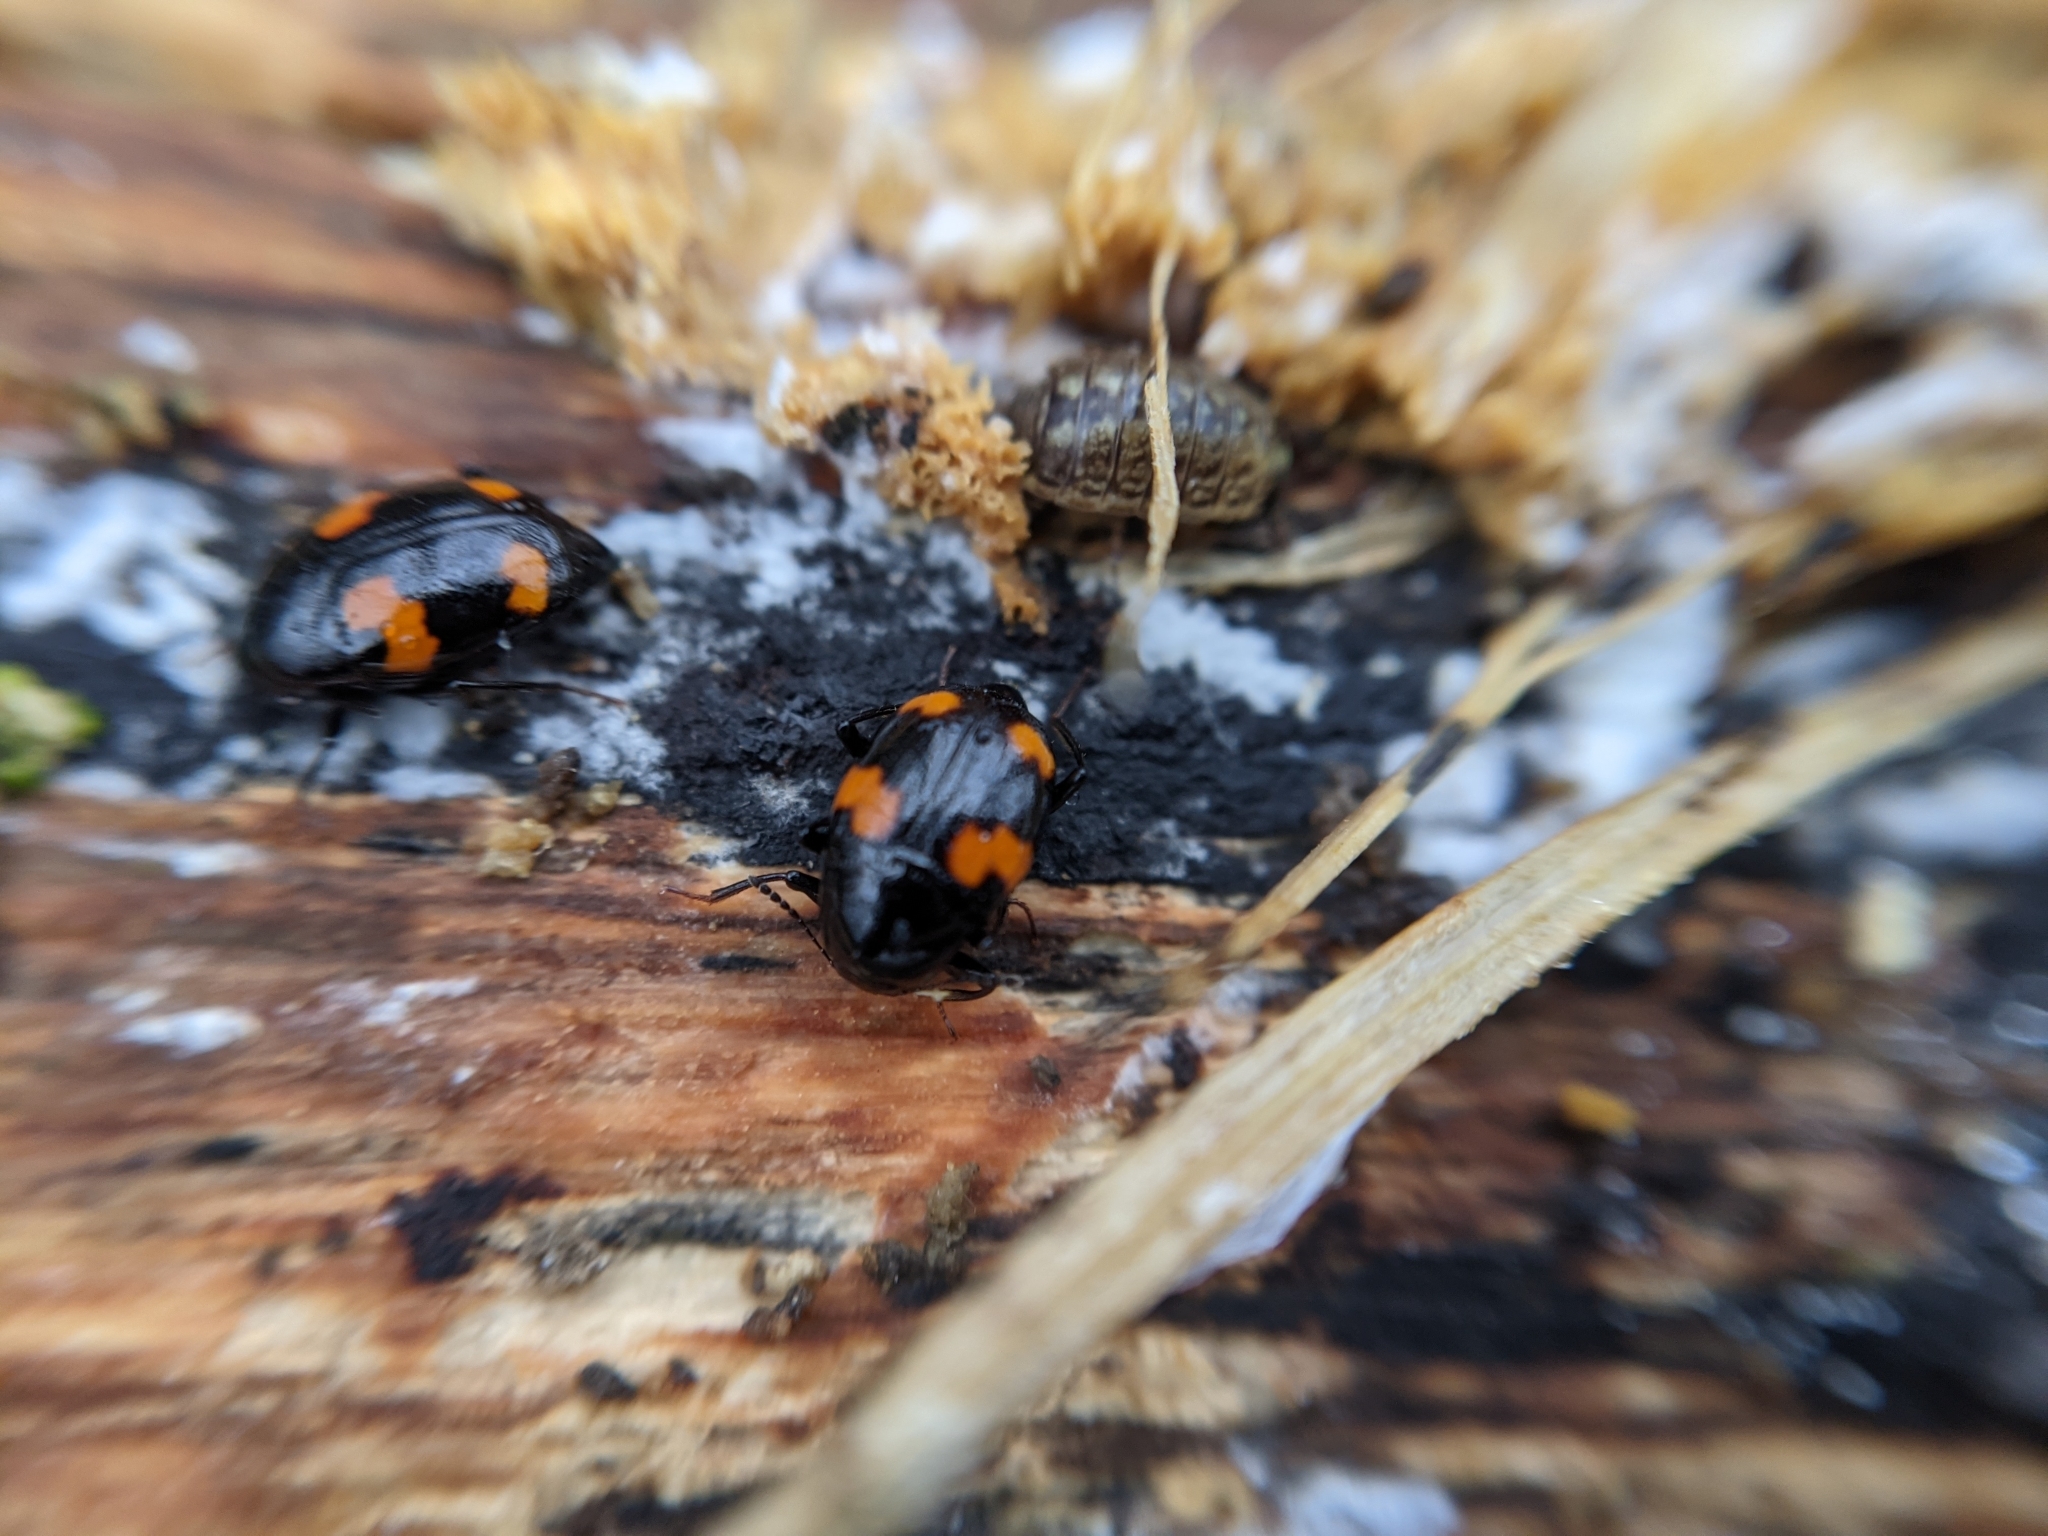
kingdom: Animalia
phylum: Arthropoda
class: Insecta
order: Coleoptera
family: Staphylinidae
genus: Scaphidium
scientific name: Scaphidium quadrimaculatum
